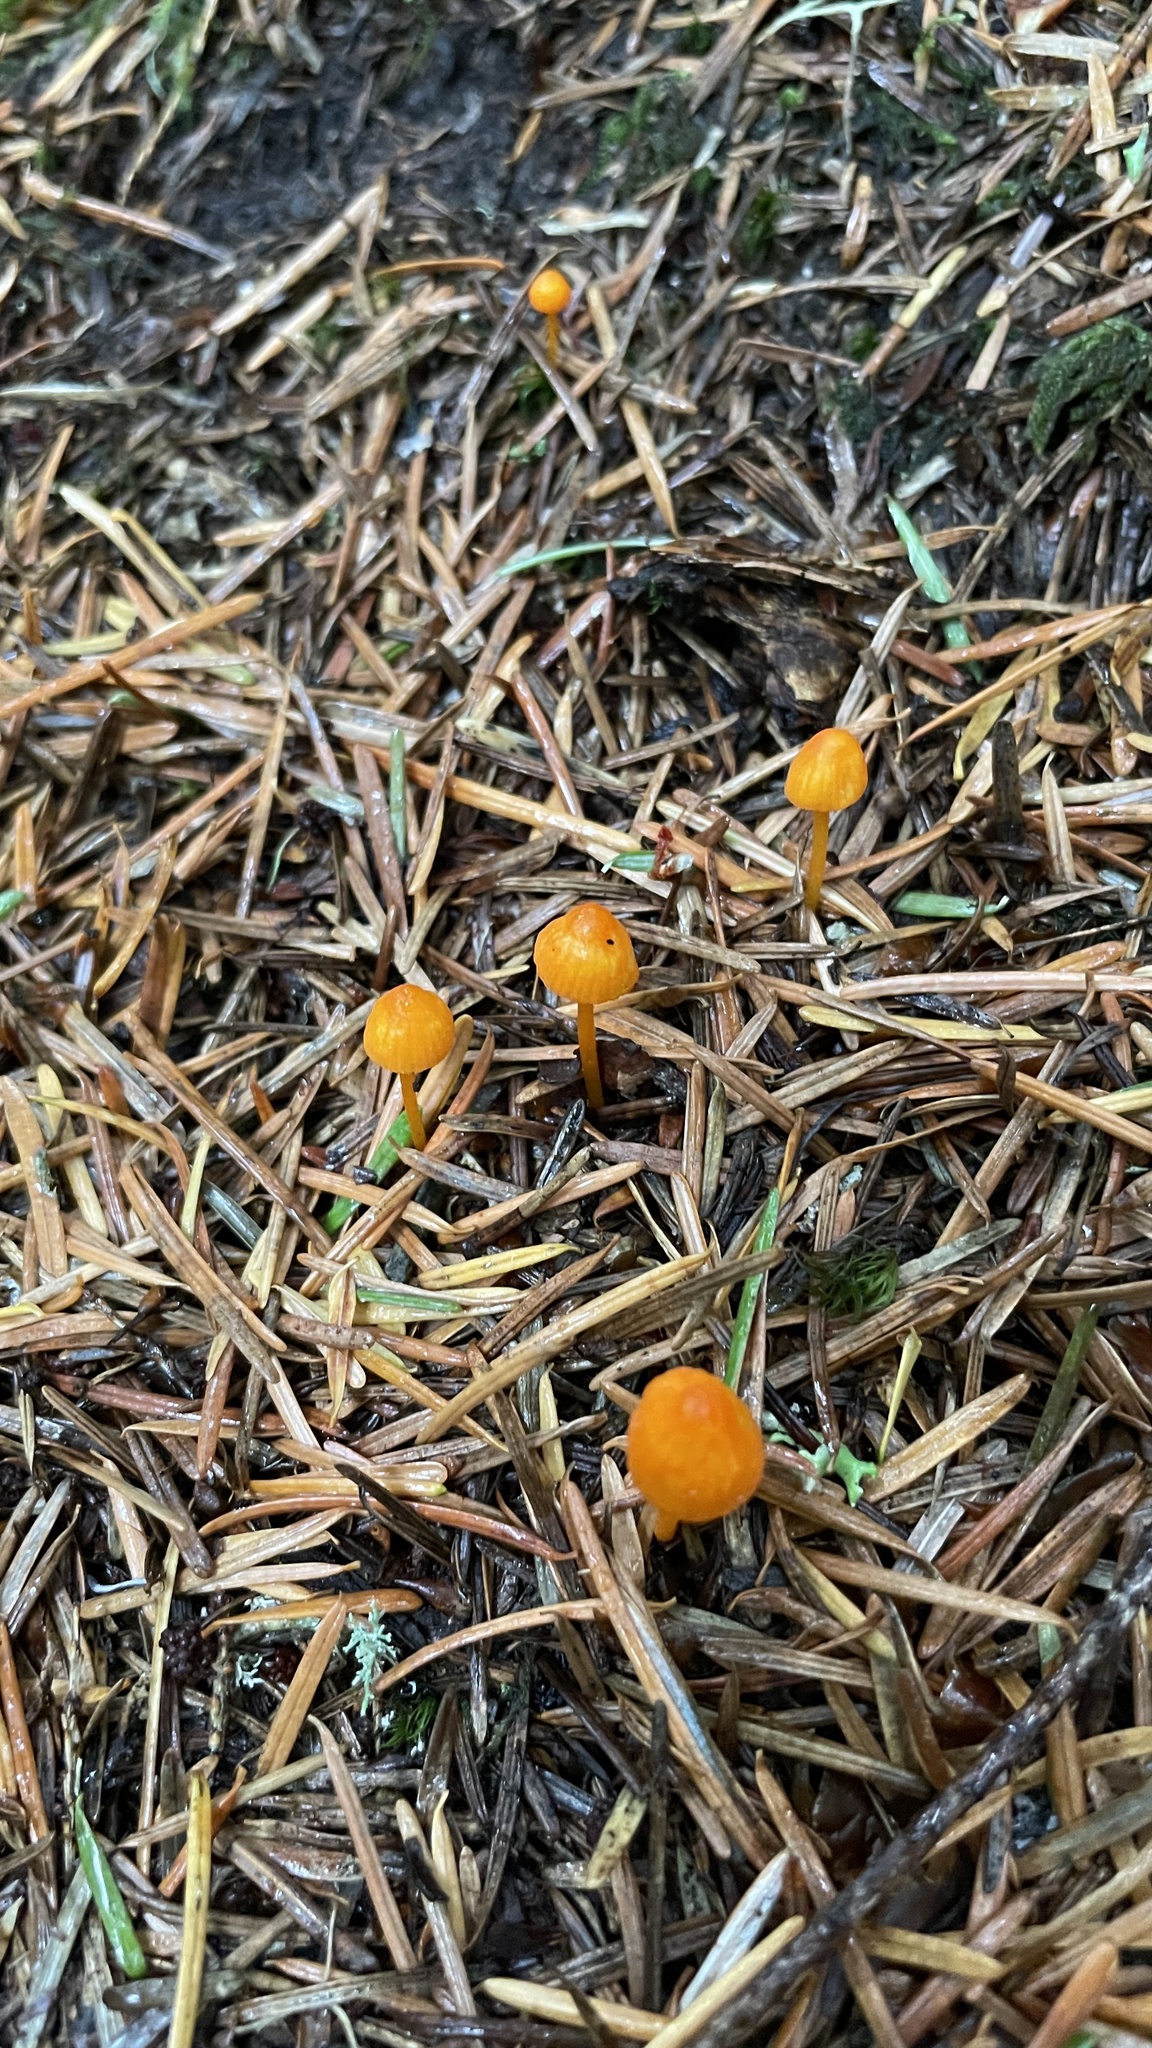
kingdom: Fungi
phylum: Basidiomycota
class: Agaricomycetes
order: Agaricales
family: Mycenaceae
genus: Mycena
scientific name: Mycena strobilinoidea
